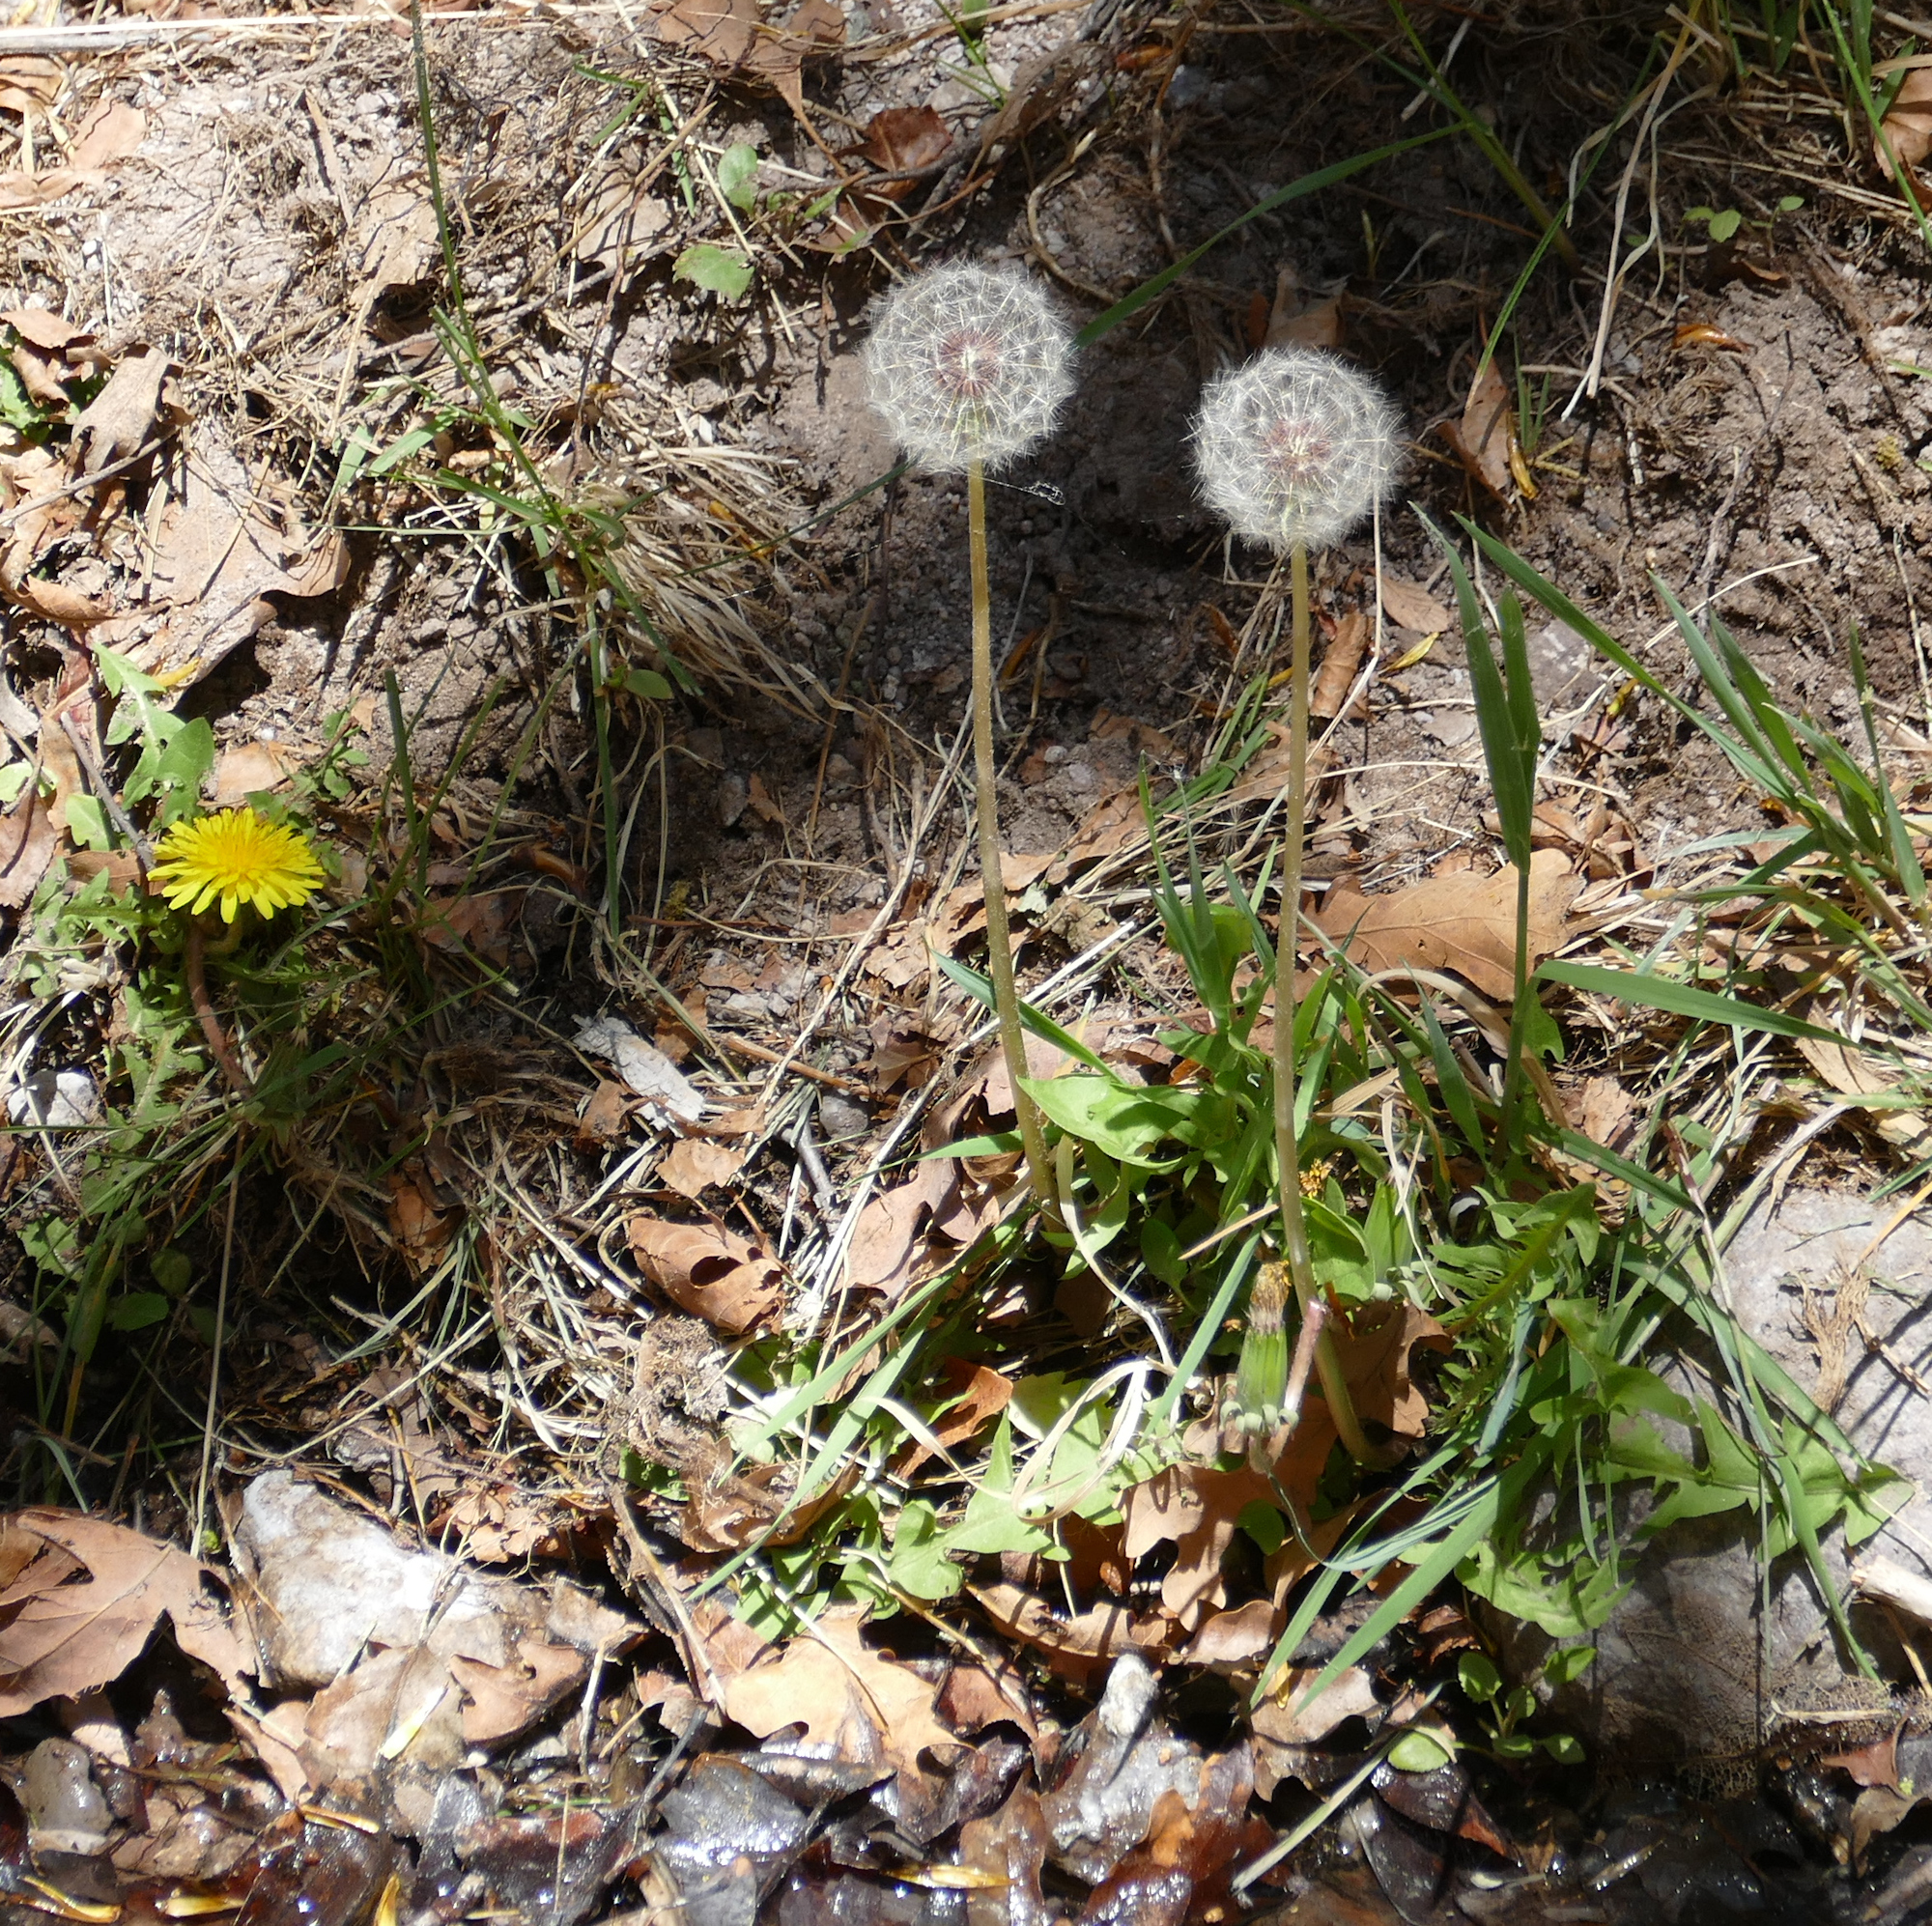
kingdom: Plantae
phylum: Tracheophyta
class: Magnoliopsida
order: Asterales
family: Asteraceae
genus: Taraxacum
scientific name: Taraxacum officinale
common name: Common dandelion
